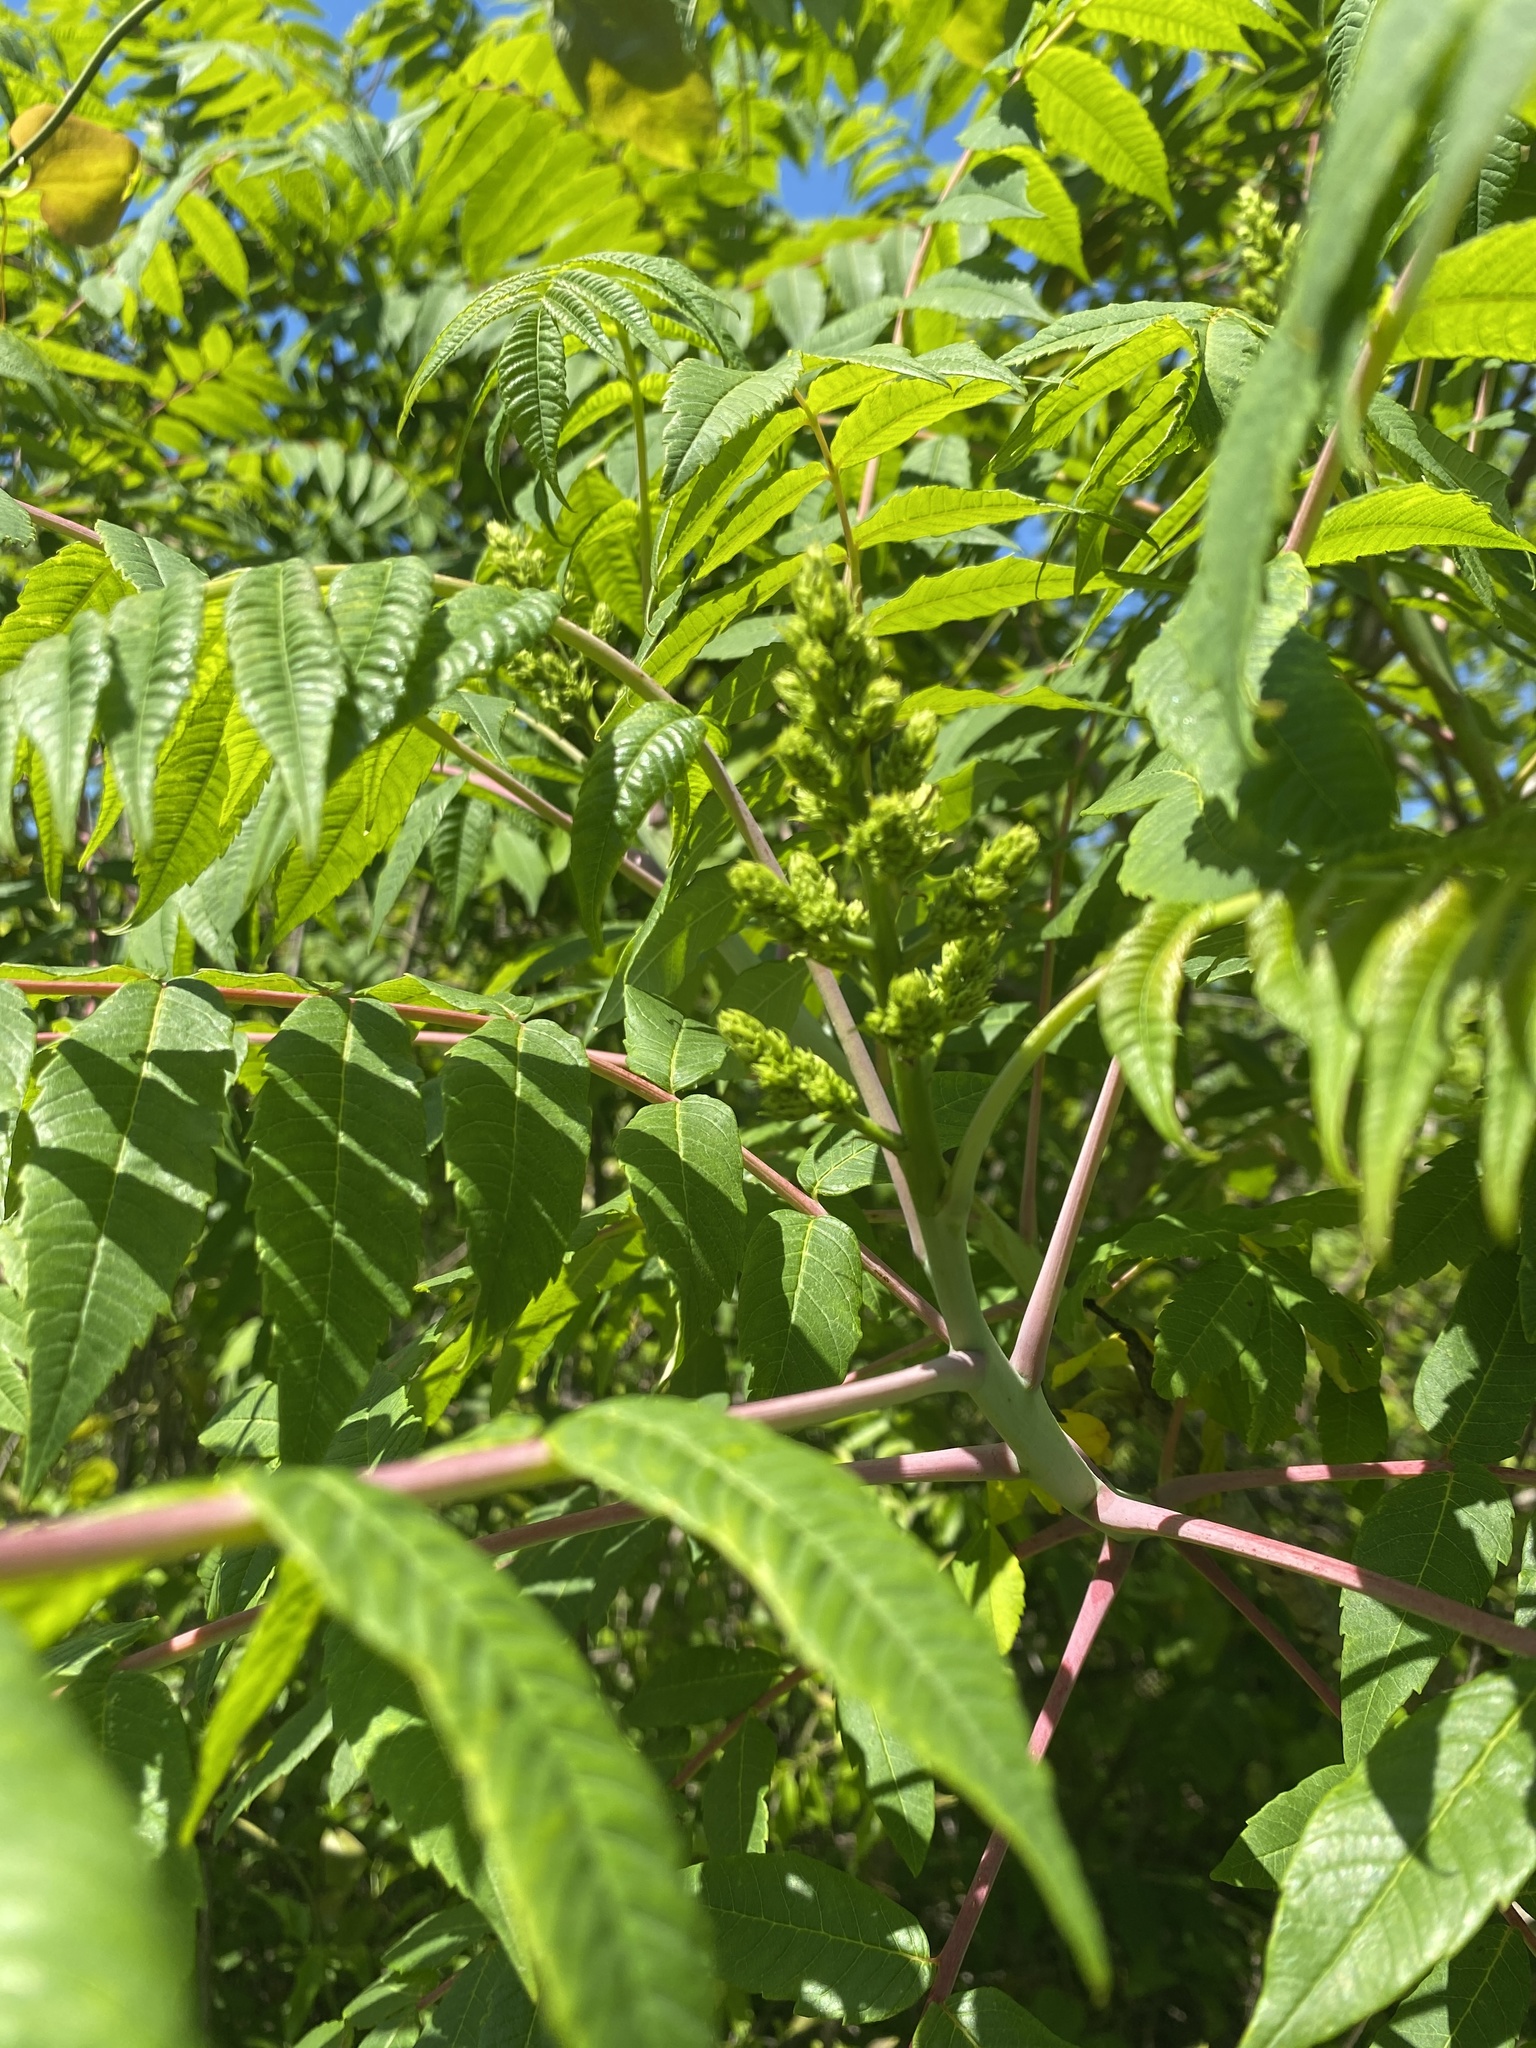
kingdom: Plantae
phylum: Tracheophyta
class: Magnoliopsida
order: Sapindales
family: Anacardiaceae
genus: Rhus
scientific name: Rhus glabra
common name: Scarlet sumac
